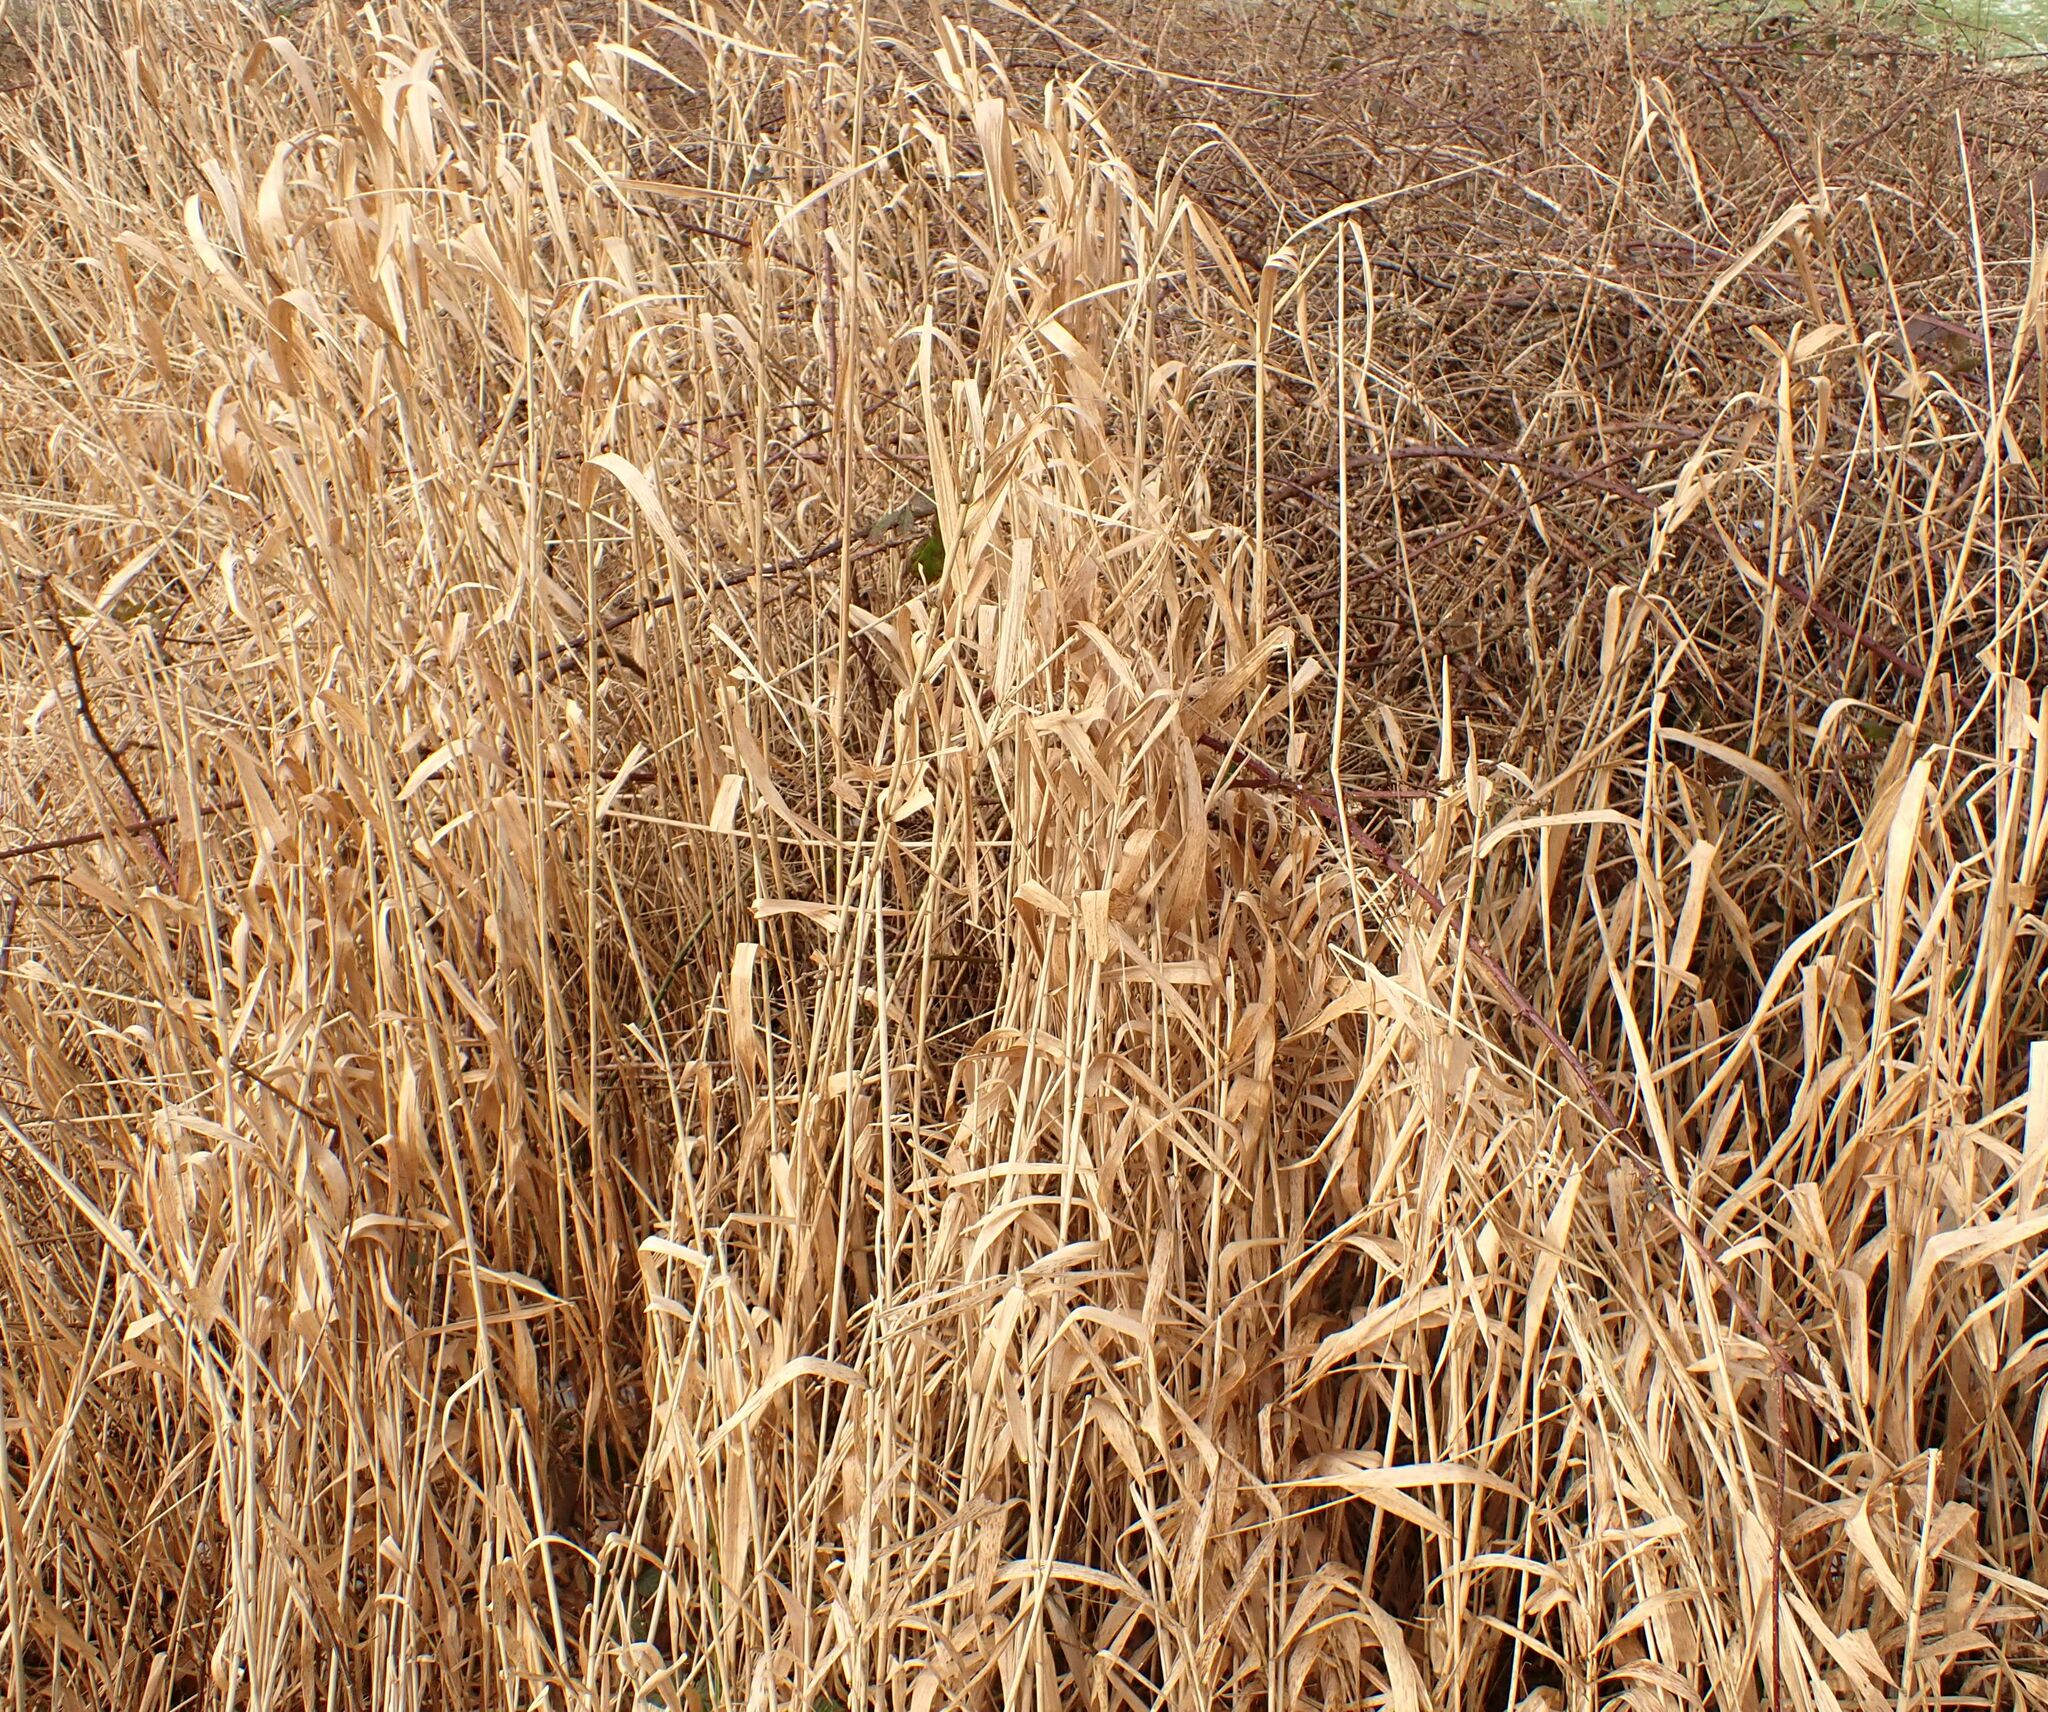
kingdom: Plantae
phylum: Tracheophyta
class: Liliopsida
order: Poales
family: Poaceae
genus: Phalaris
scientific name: Phalaris arundinacea
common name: Reed canary-grass
